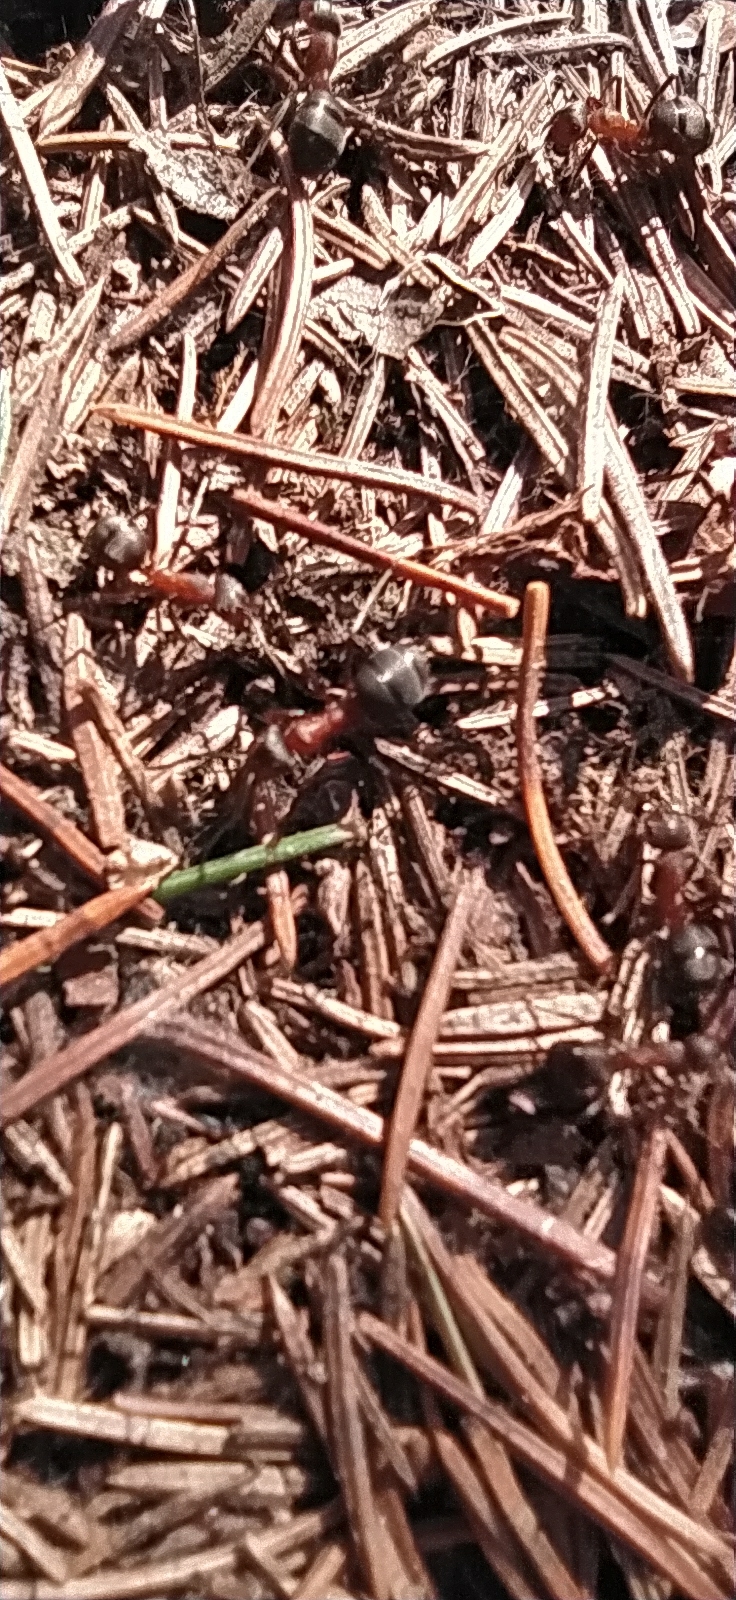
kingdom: Animalia
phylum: Arthropoda
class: Insecta
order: Hymenoptera
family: Formicidae
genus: Formica
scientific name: Formica rufa
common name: Red wood ant
